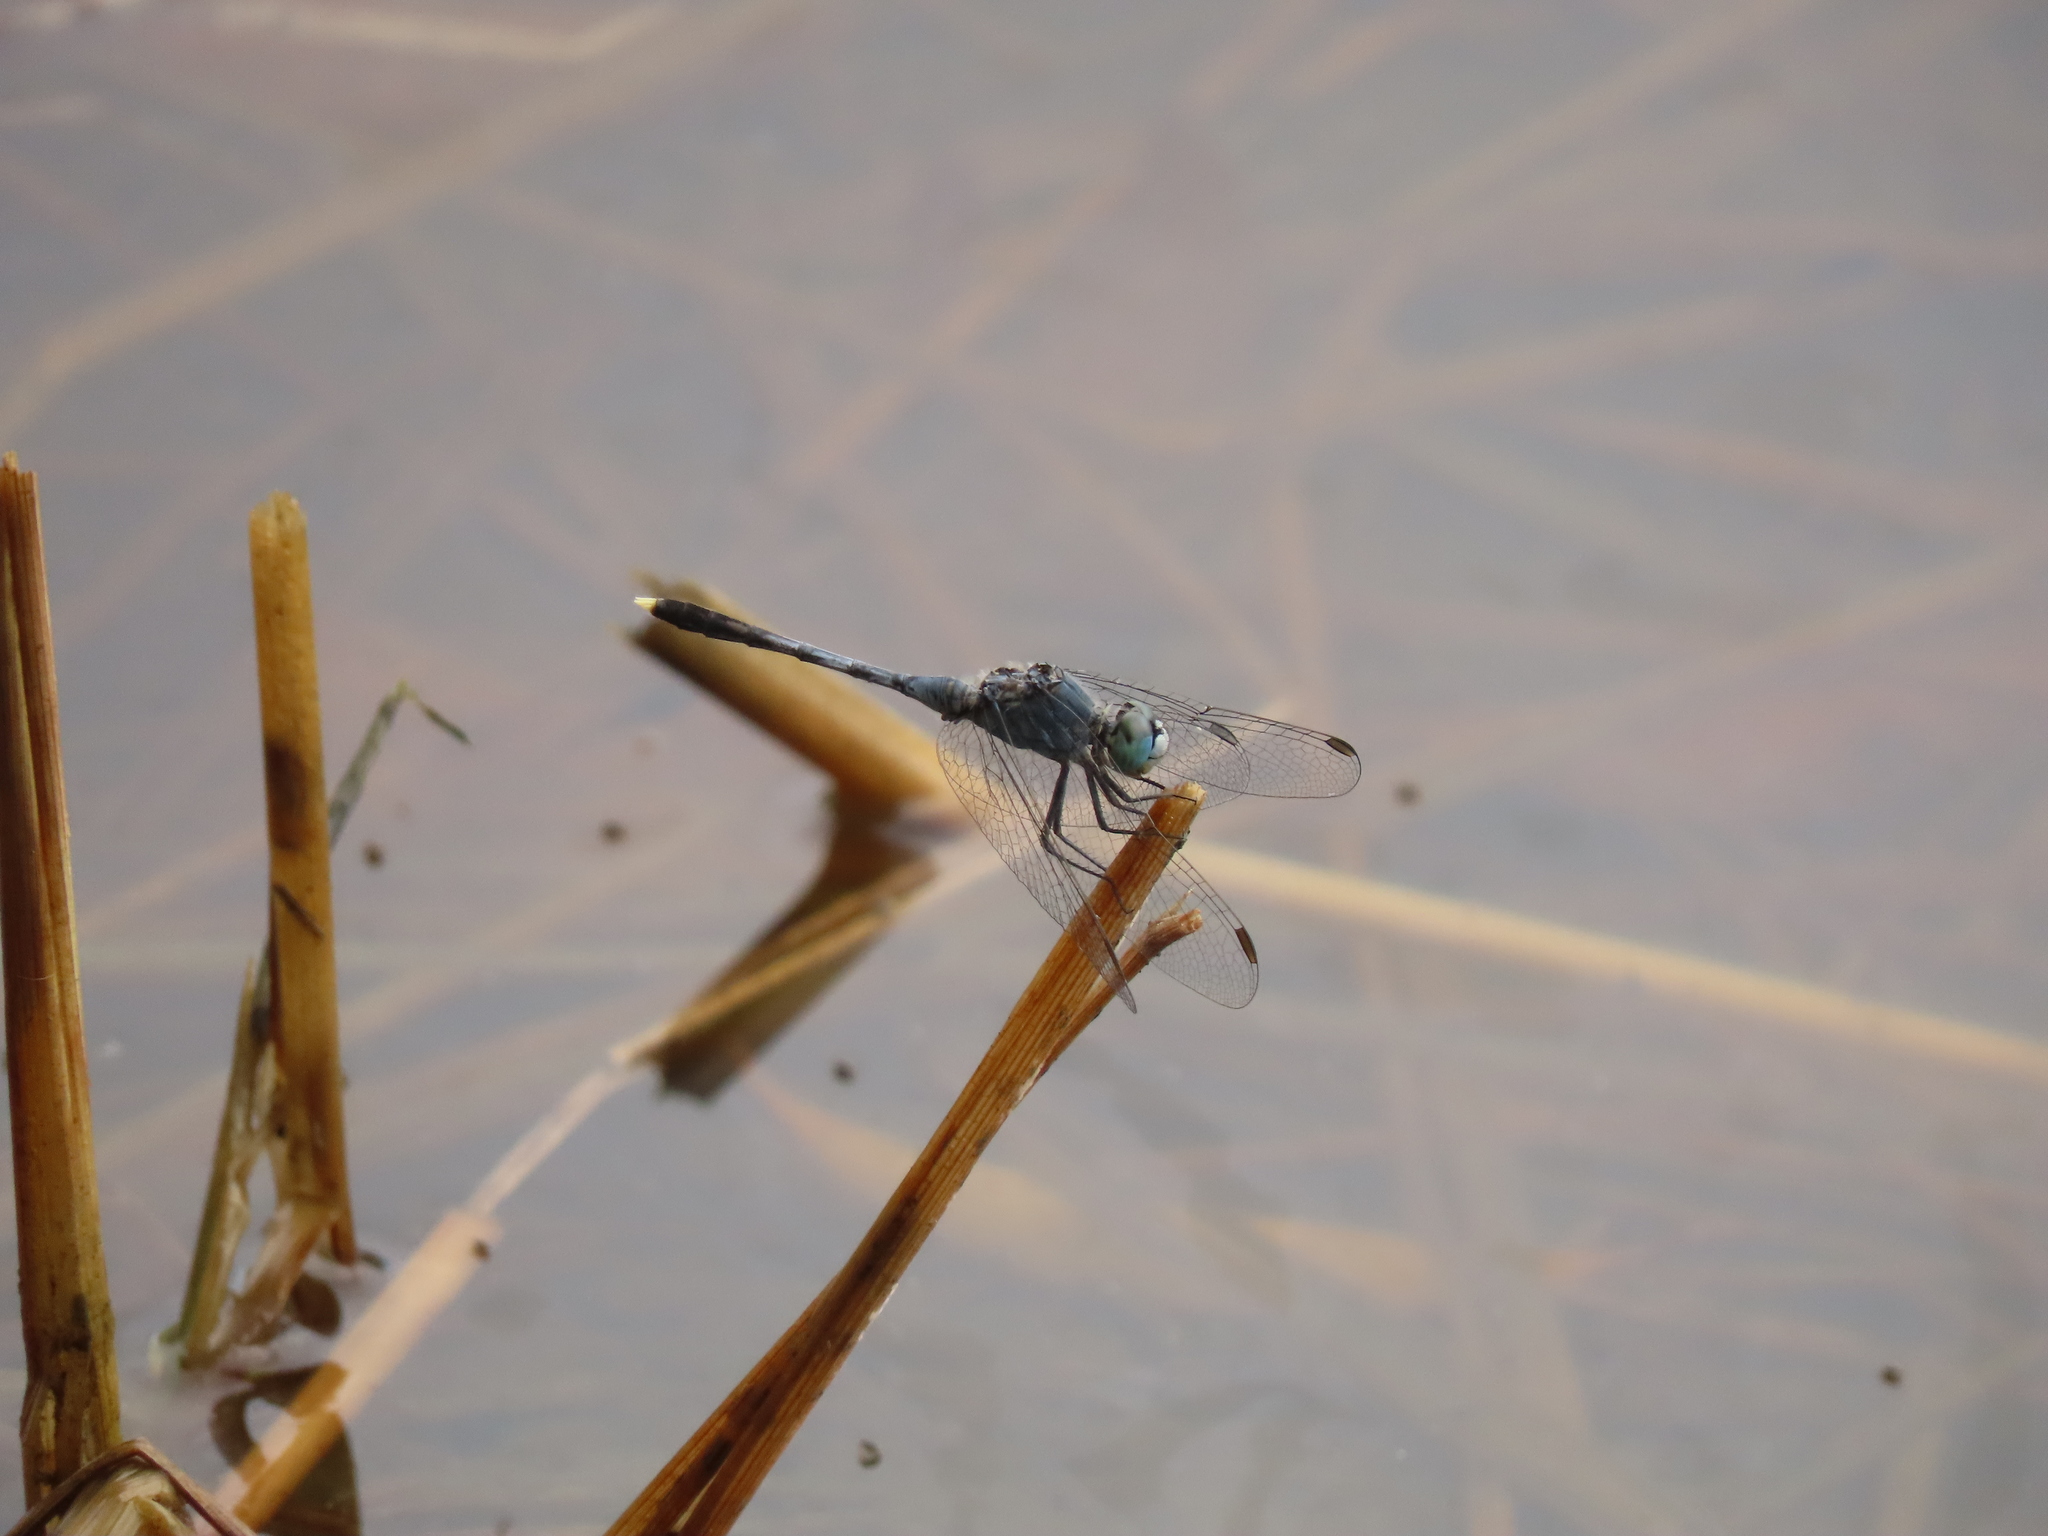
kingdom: Animalia
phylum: Arthropoda
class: Insecta
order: Odonata
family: Libellulidae
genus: Diplacodes
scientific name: Diplacodes trivialis
